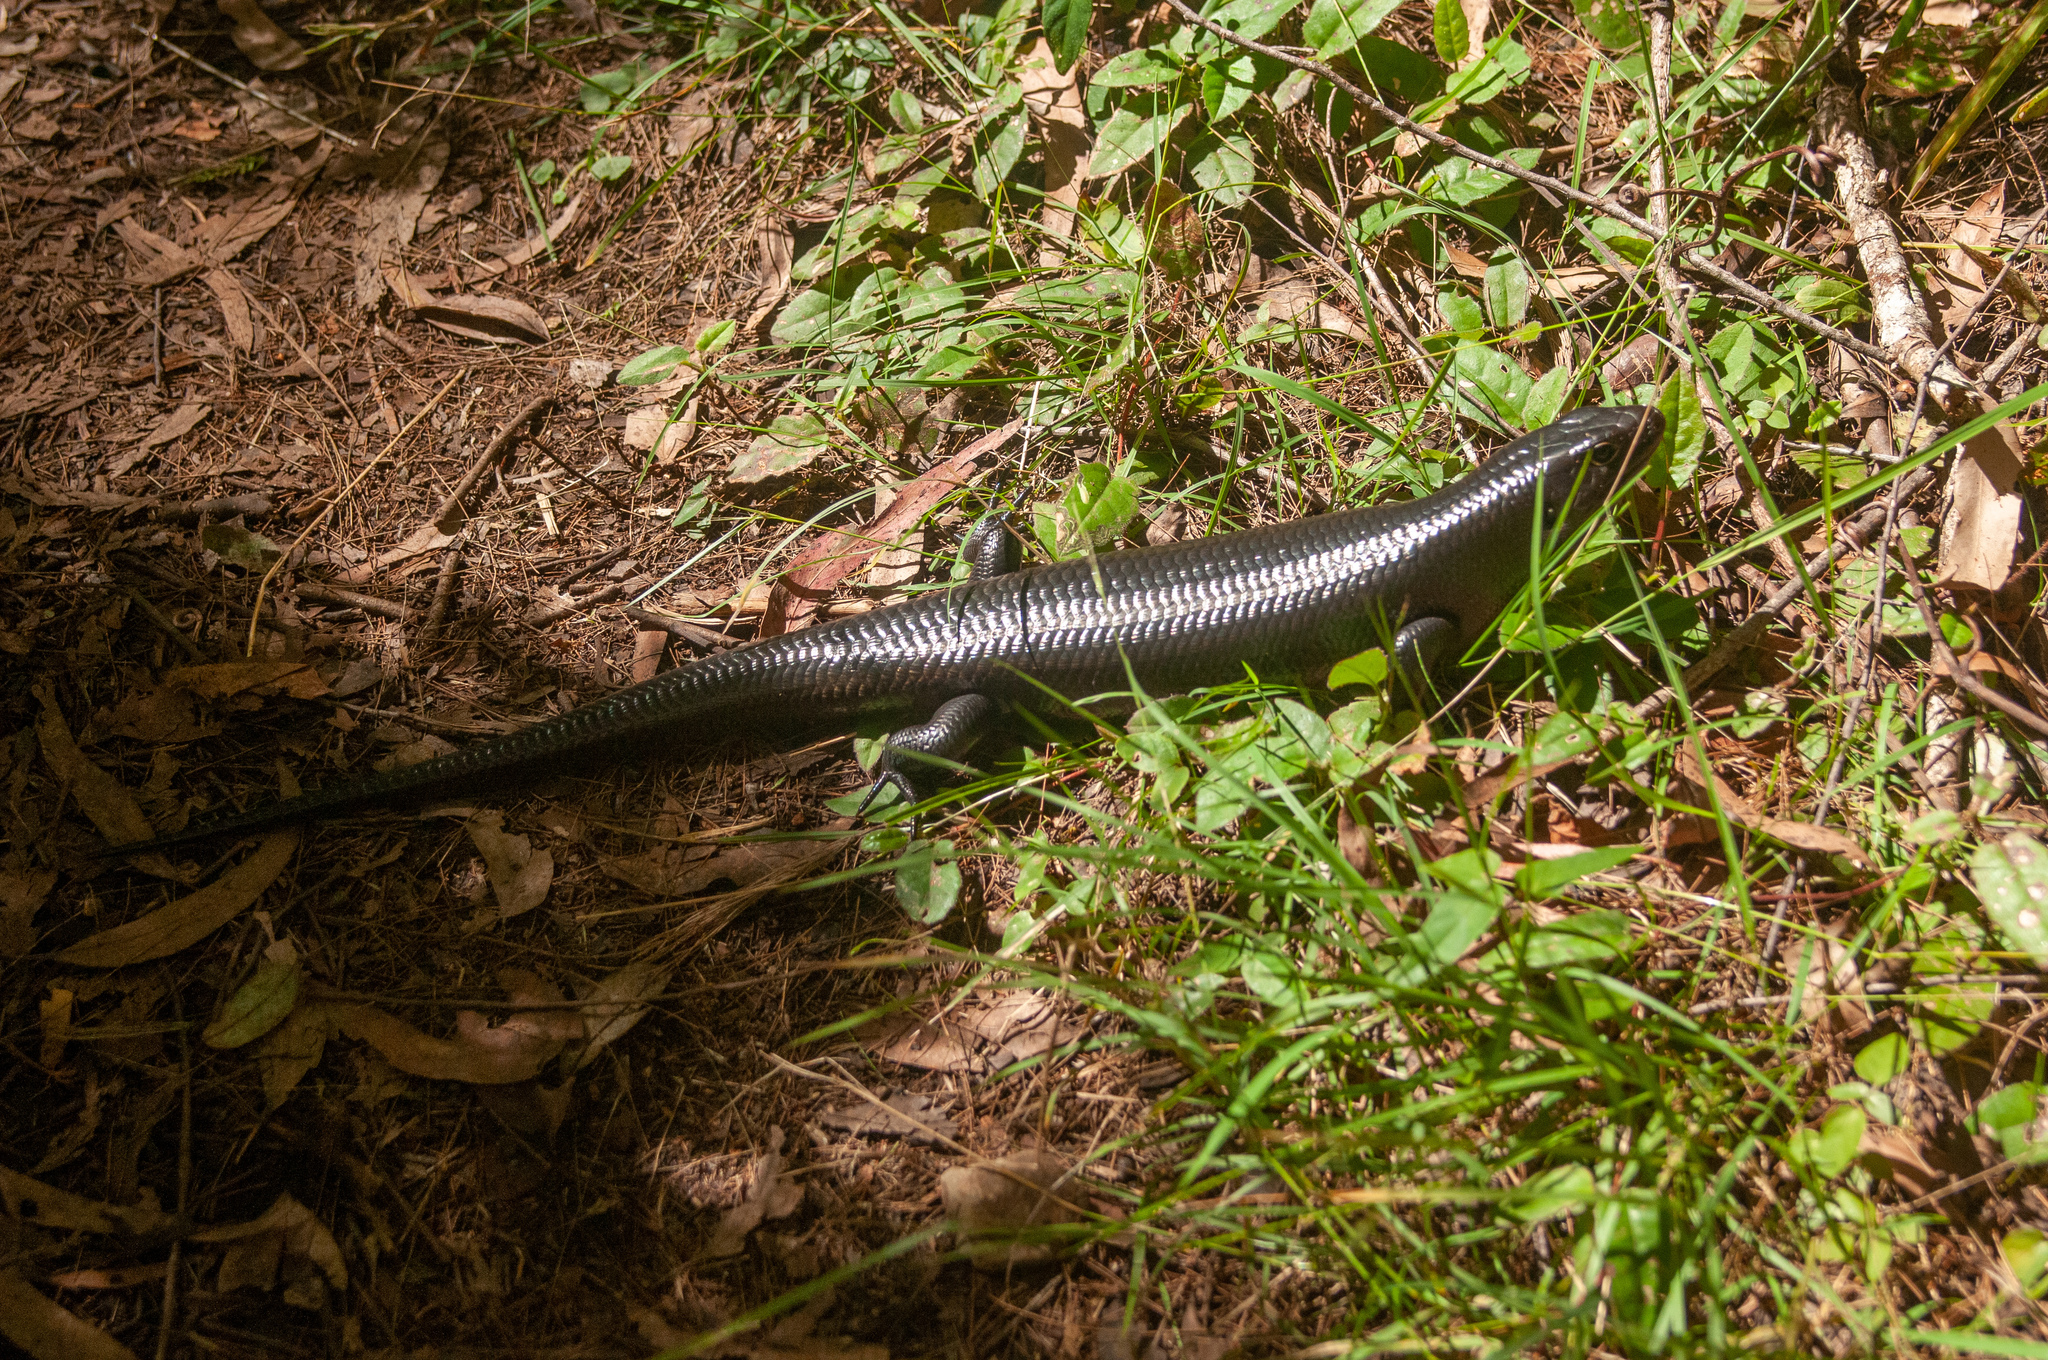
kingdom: Animalia
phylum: Chordata
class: Squamata
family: Scincidae
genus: Bellatorias
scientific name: Bellatorias major
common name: Land mullet
